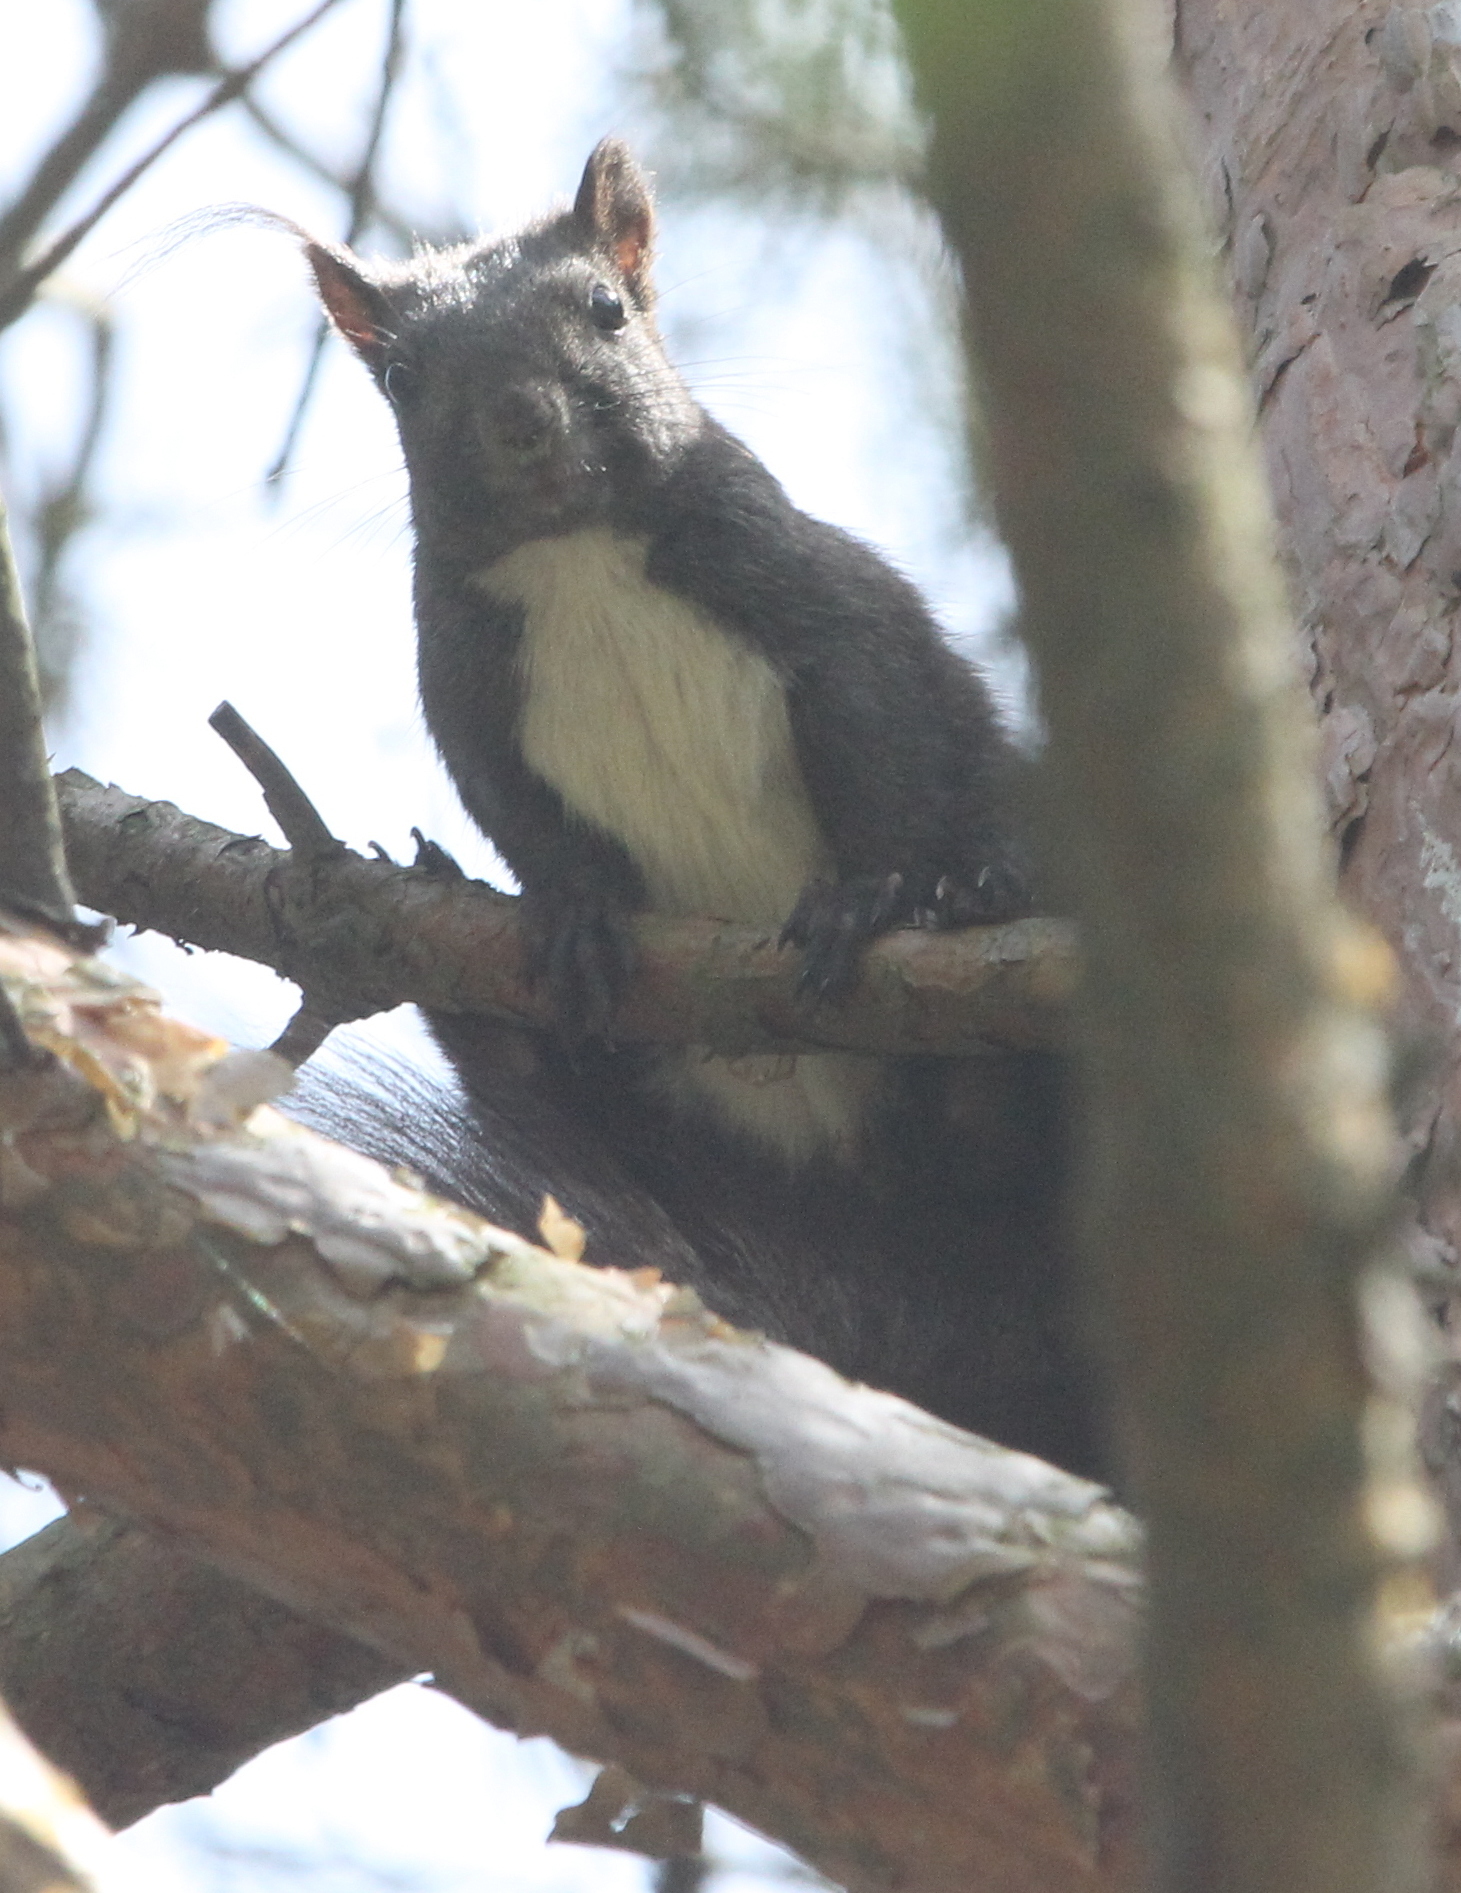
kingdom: Animalia
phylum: Chordata
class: Mammalia
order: Rodentia
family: Sciuridae
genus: Sciurus
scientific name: Sciurus vulgaris
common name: Eurasian red squirrel
